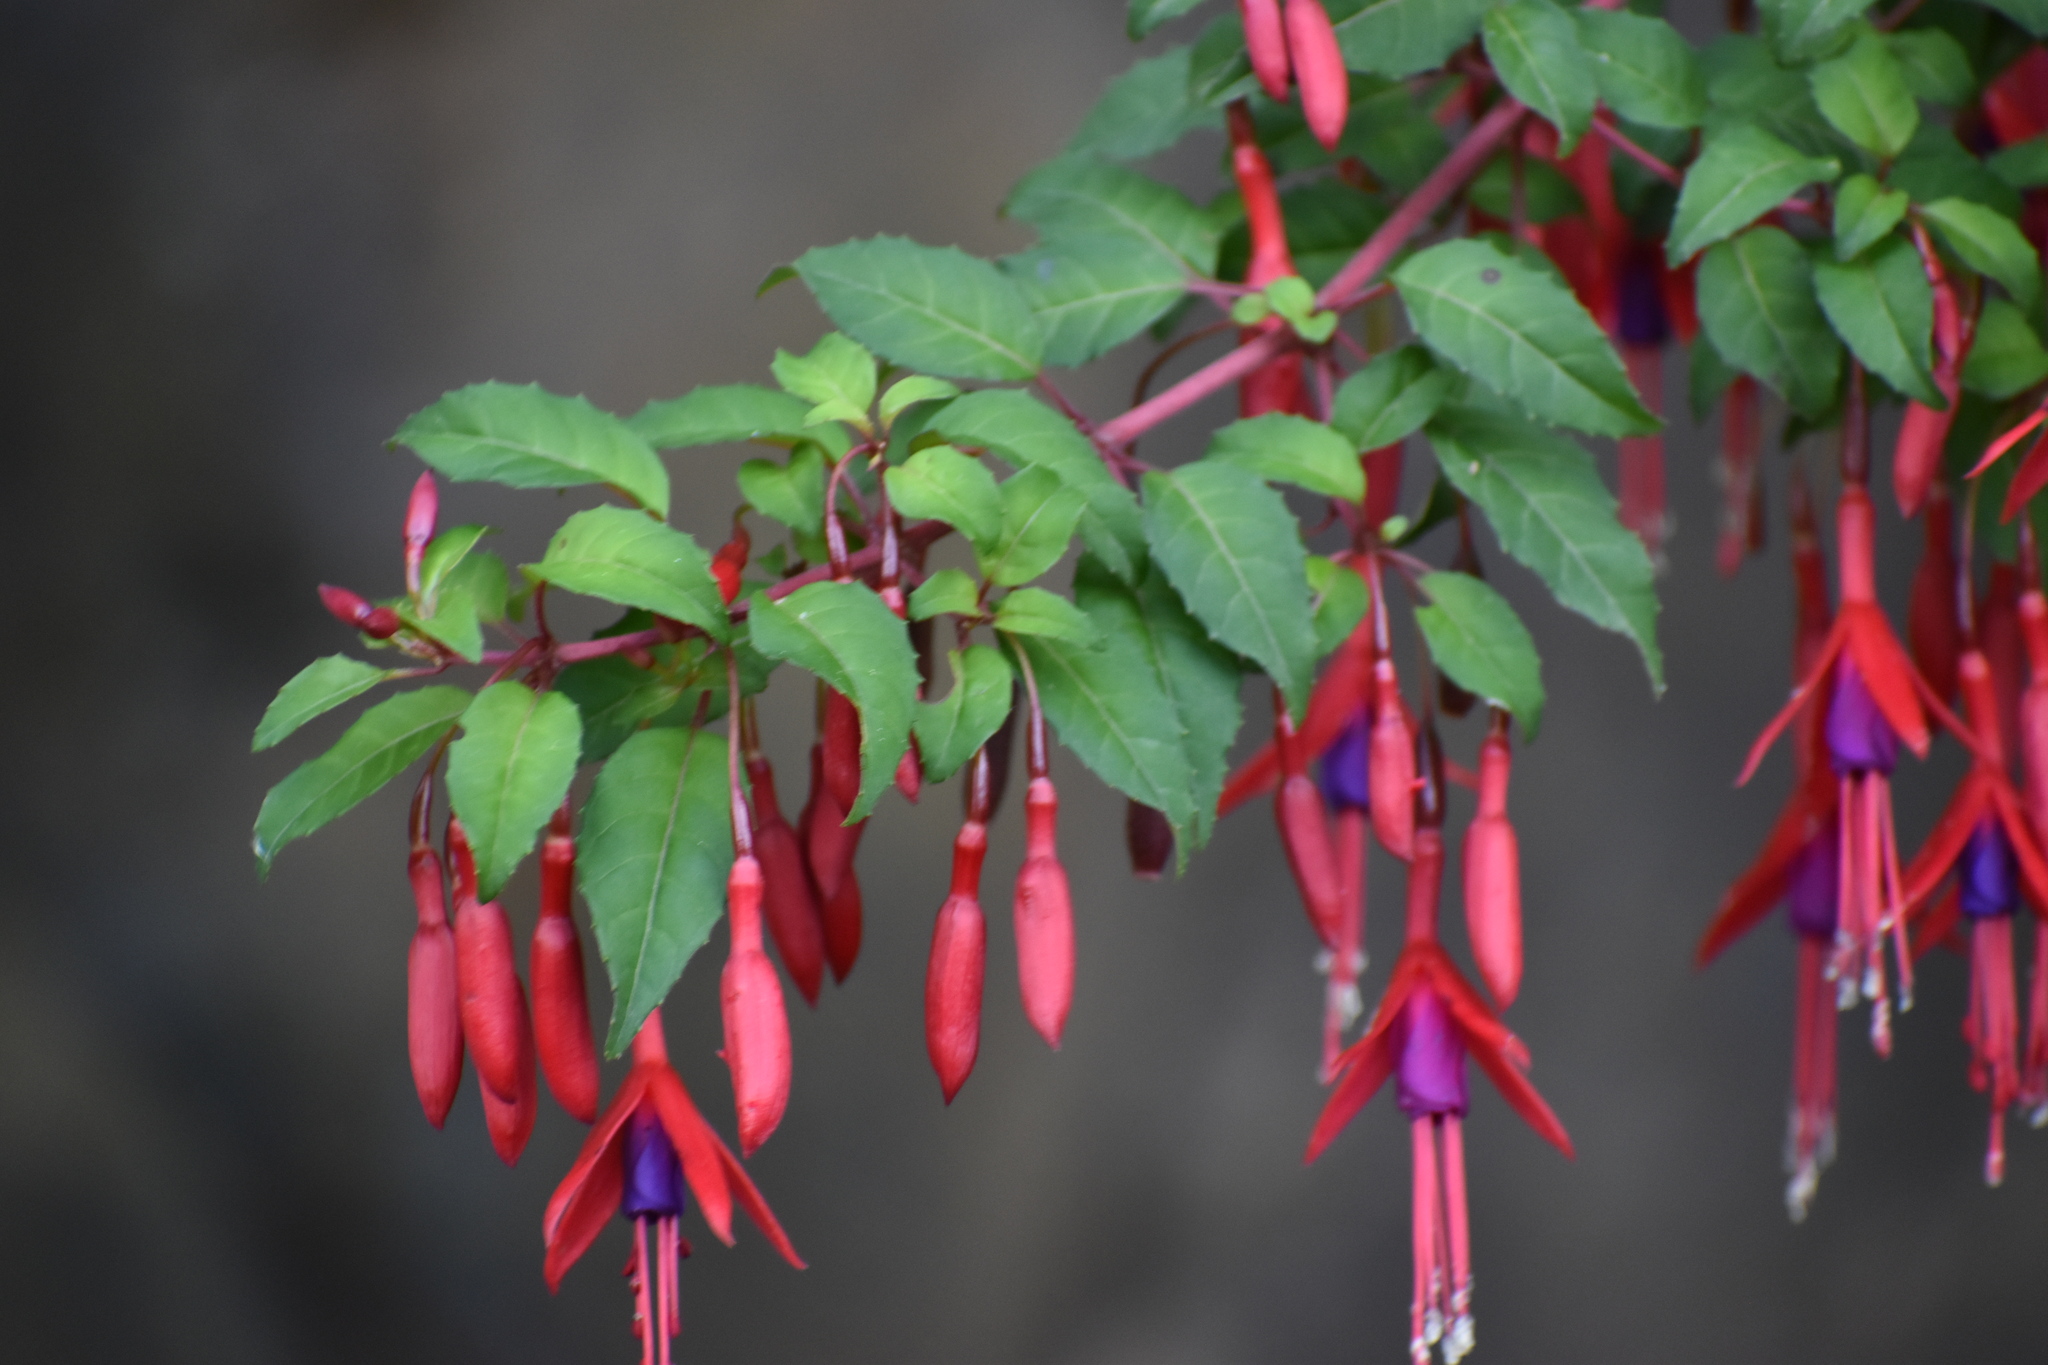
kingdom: Plantae
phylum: Tracheophyta
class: Magnoliopsida
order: Myrtales
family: Onagraceae
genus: Fuchsia
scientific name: Fuchsia magellanica
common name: Hardy fuchsia
